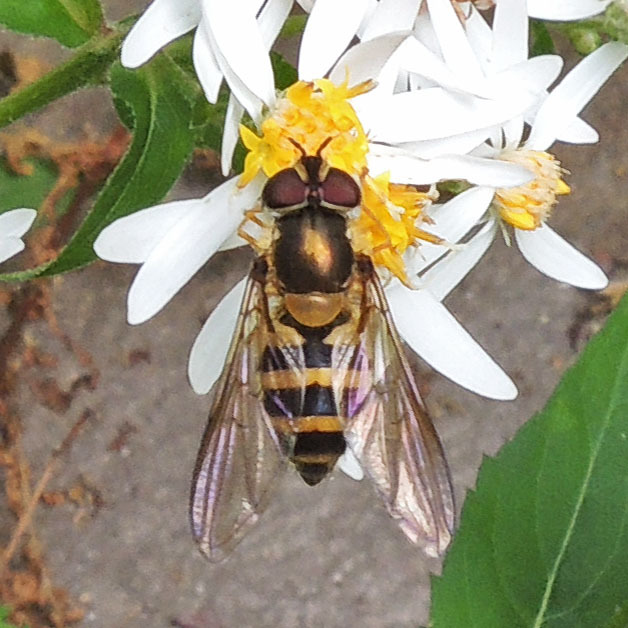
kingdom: Animalia
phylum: Arthropoda
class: Insecta
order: Diptera
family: Syrphidae
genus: Epistrophe
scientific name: Epistrophe grossulariae
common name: Black-horned smoothtail
